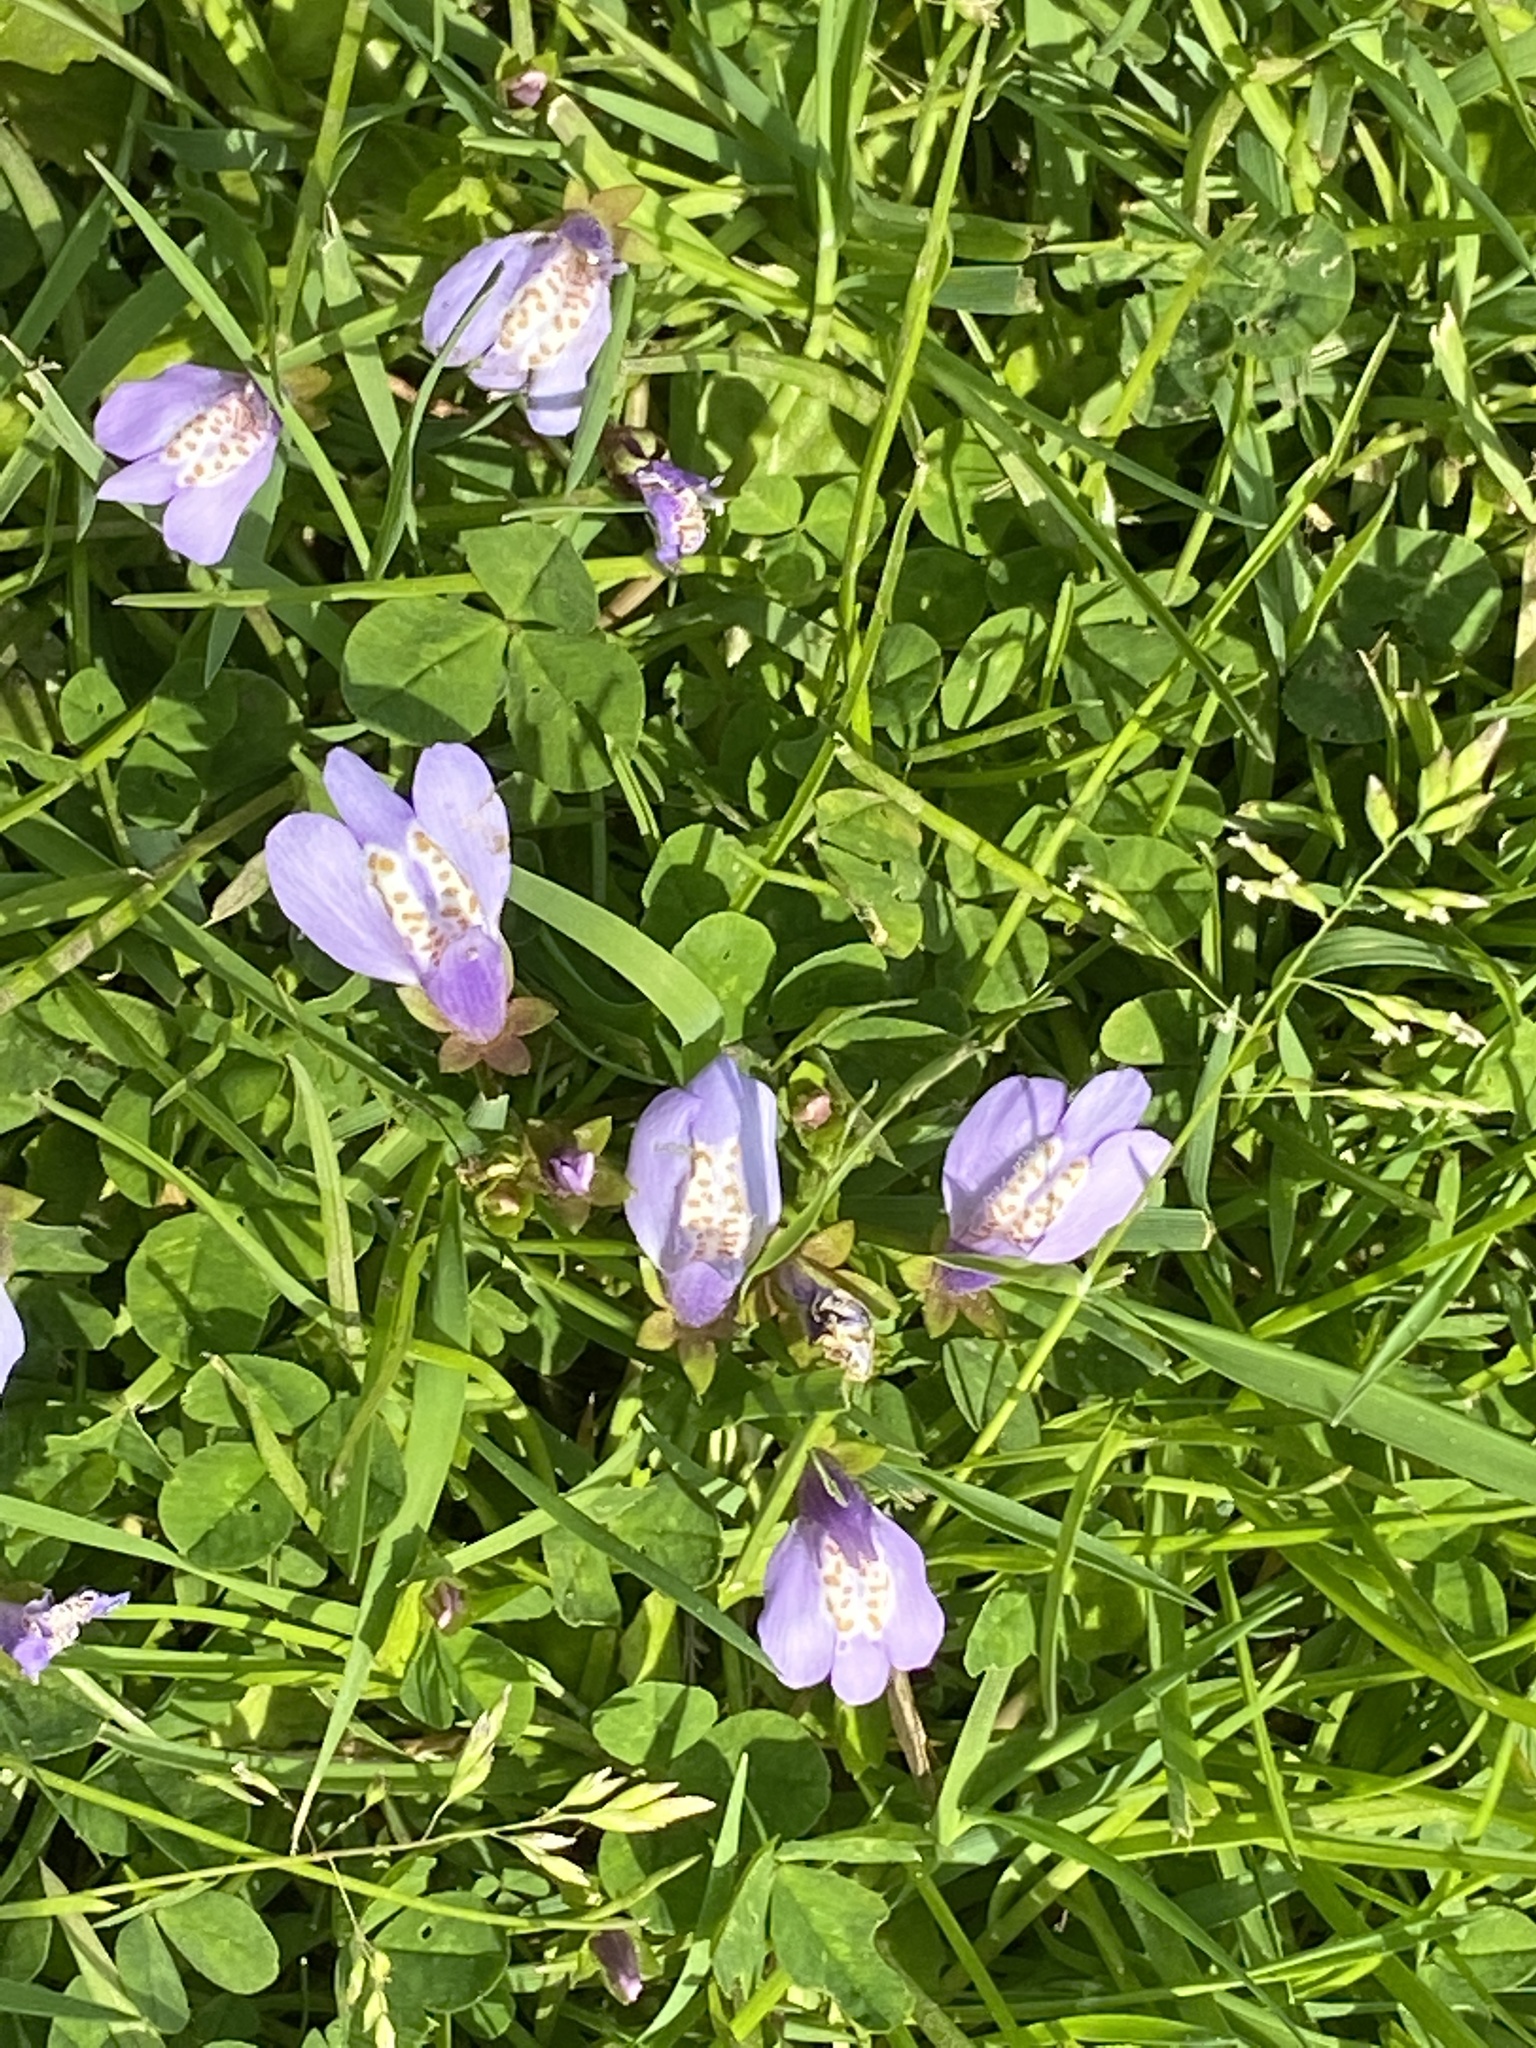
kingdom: Plantae
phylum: Tracheophyta
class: Magnoliopsida
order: Lamiales
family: Mazaceae
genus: Mazus
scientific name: Mazus miquelii
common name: Miquel's mazus
